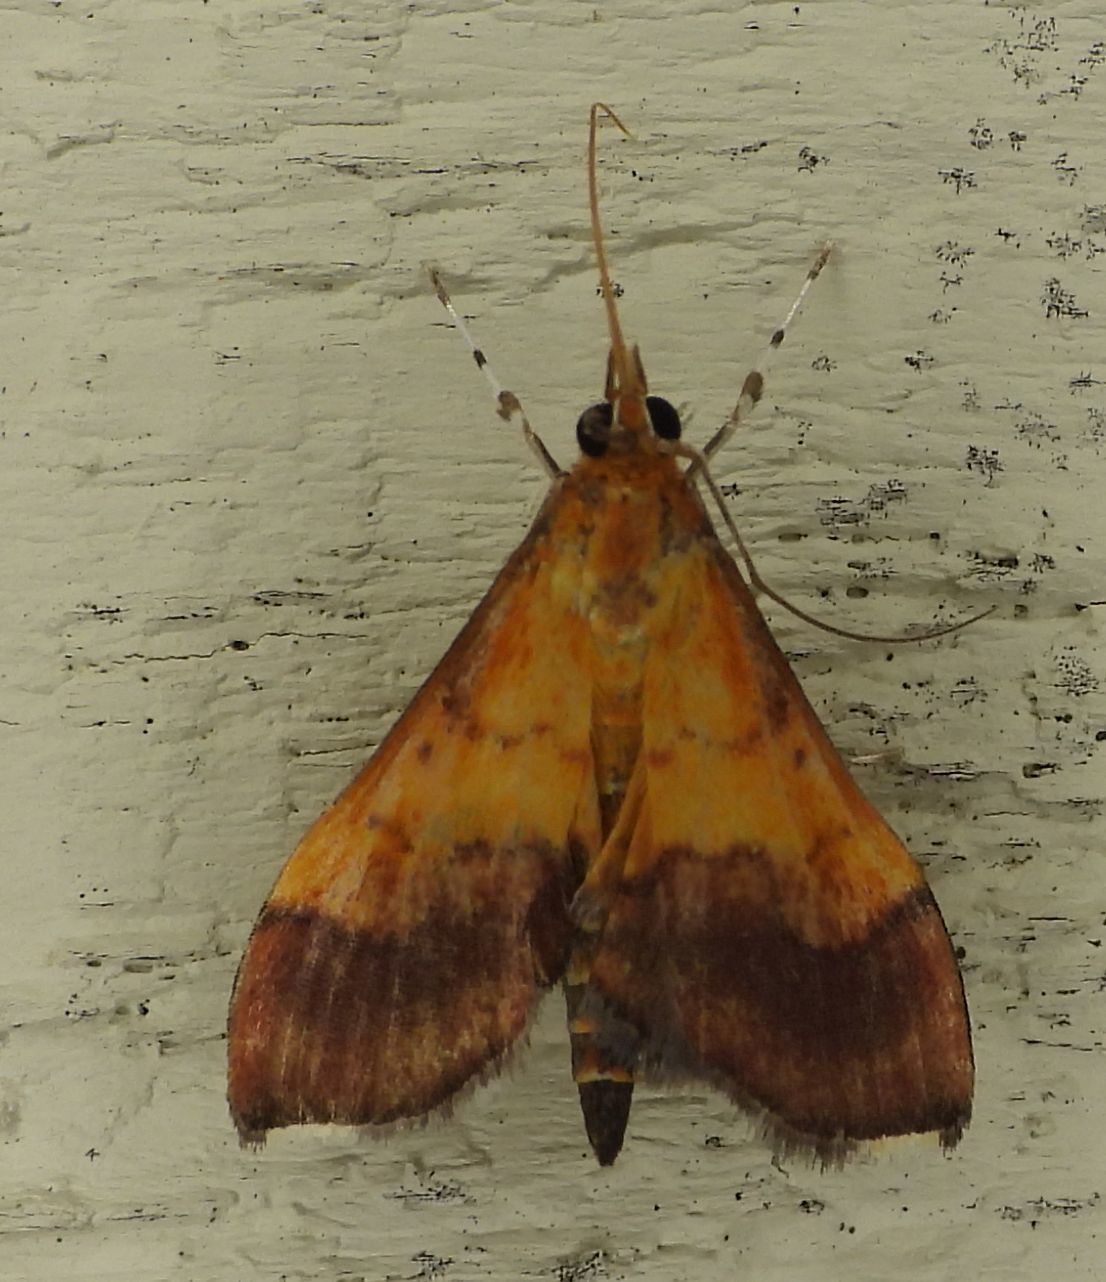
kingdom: Animalia
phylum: Arthropoda
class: Insecta
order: Lepidoptera
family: Crambidae
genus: Pyrausta
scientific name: Pyrausta bicoloralis
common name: Bicolored pyrausta moth
